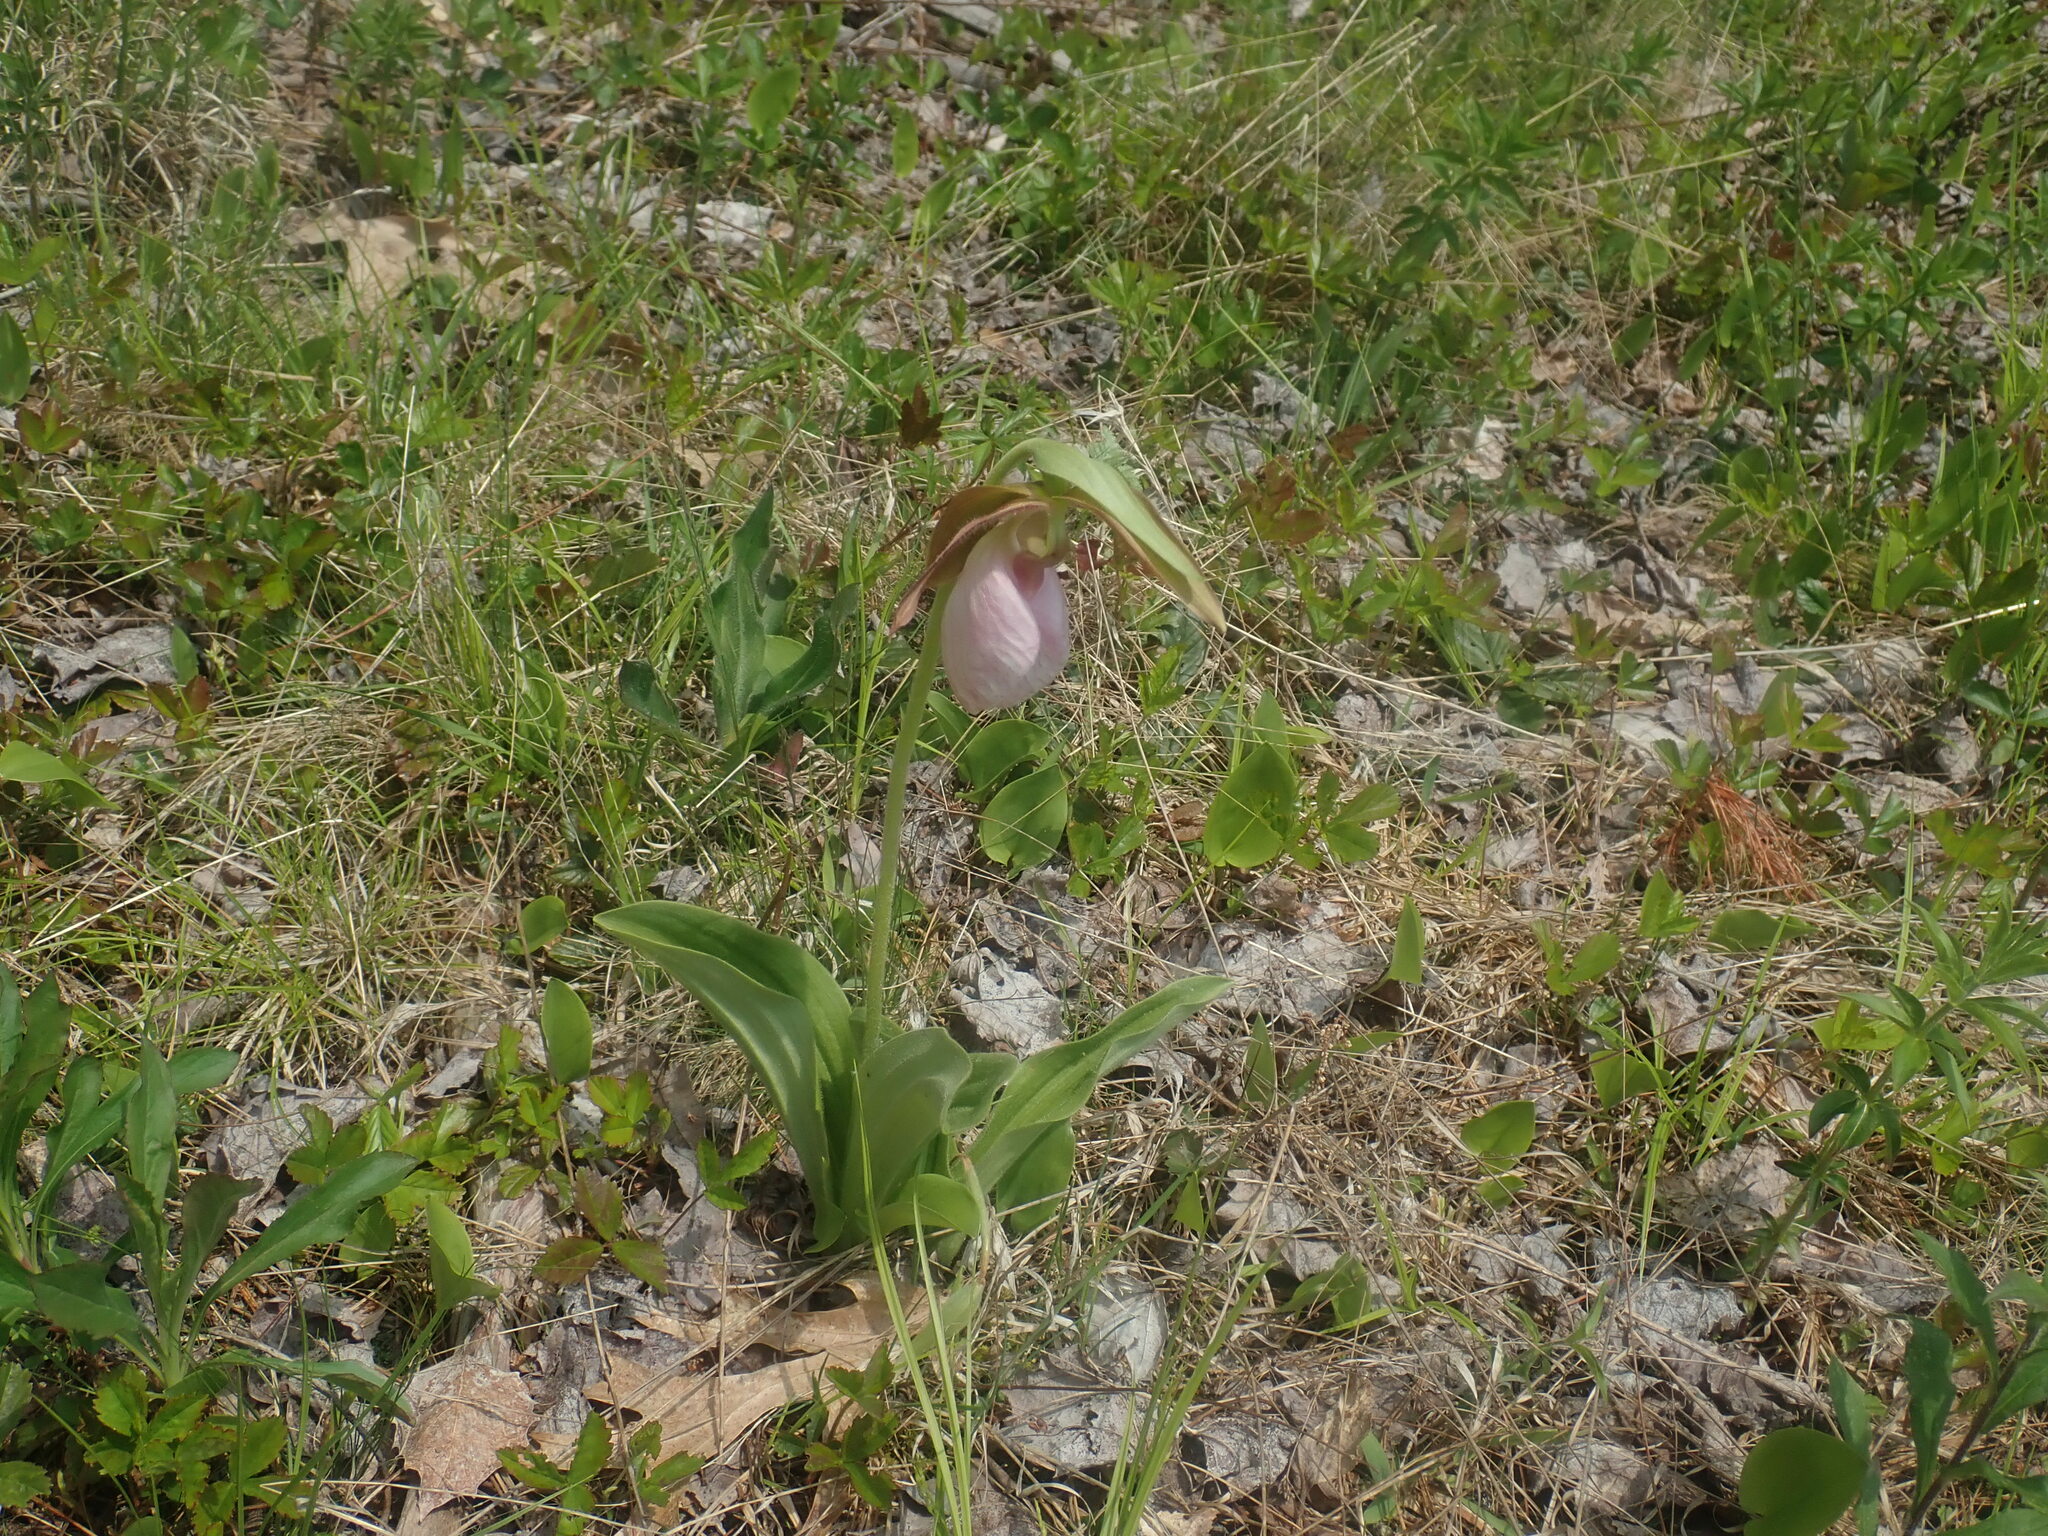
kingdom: Plantae
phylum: Tracheophyta
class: Liliopsida
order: Asparagales
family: Orchidaceae
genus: Cypripedium
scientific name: Cypripedium acaule
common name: Pink lady's-slipper
